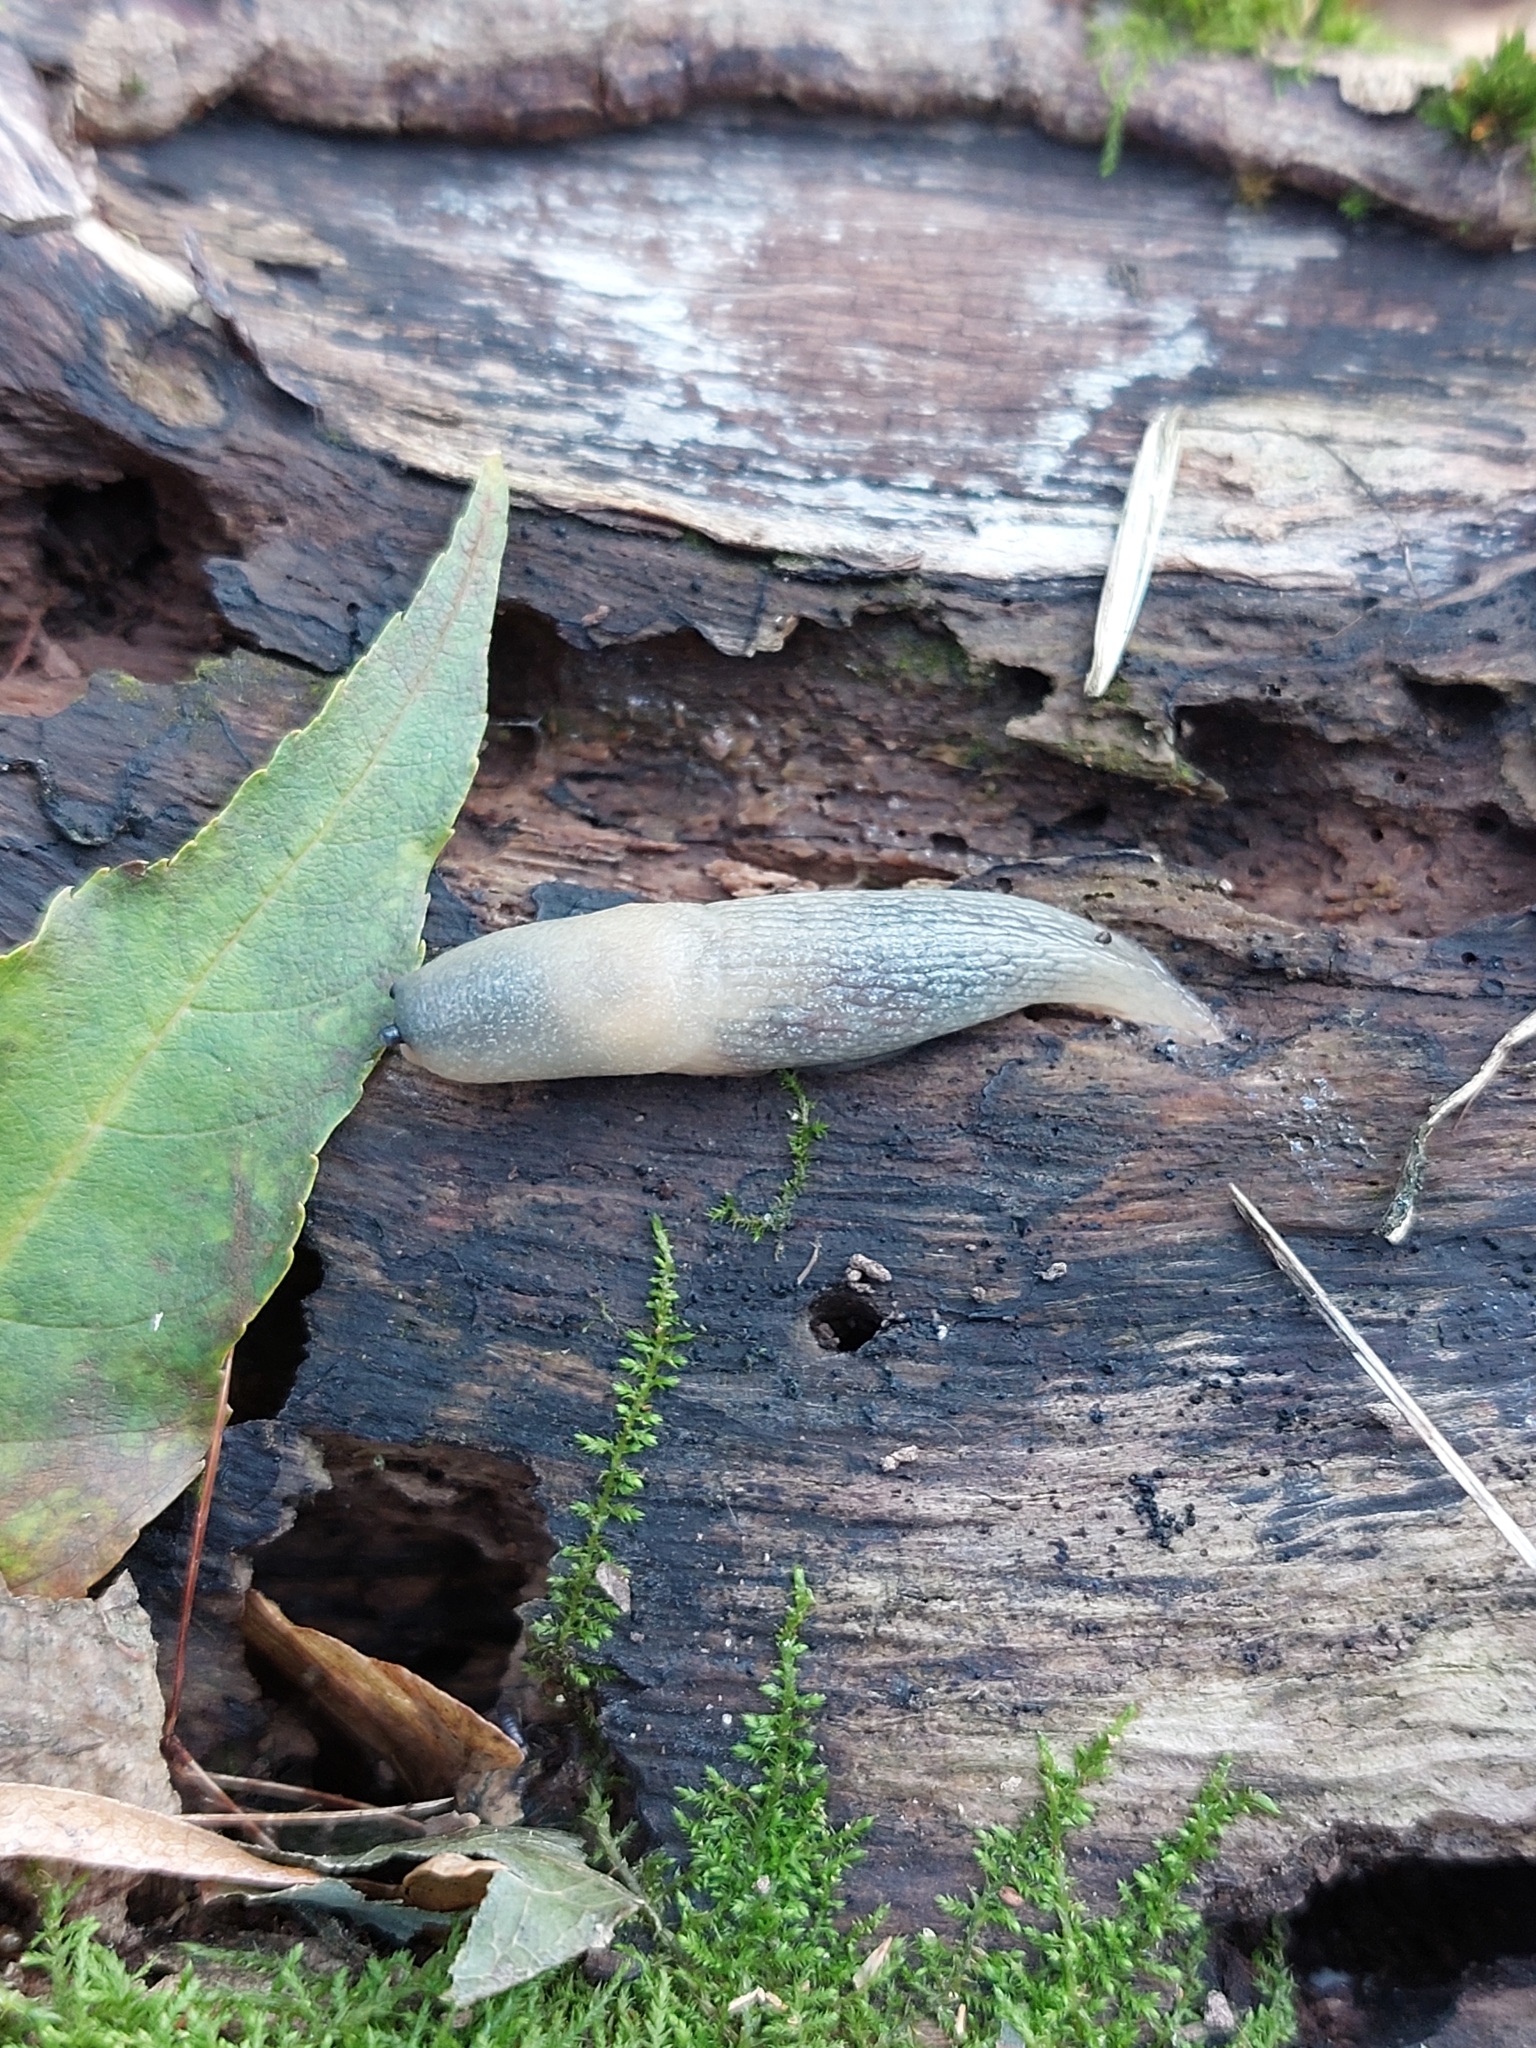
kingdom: Animalia
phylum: Mollusca
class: Gastropoda
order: Stylommatophora
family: Agriolimacidae
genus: Krynickillus
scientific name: Krynickillus melanocephalus
